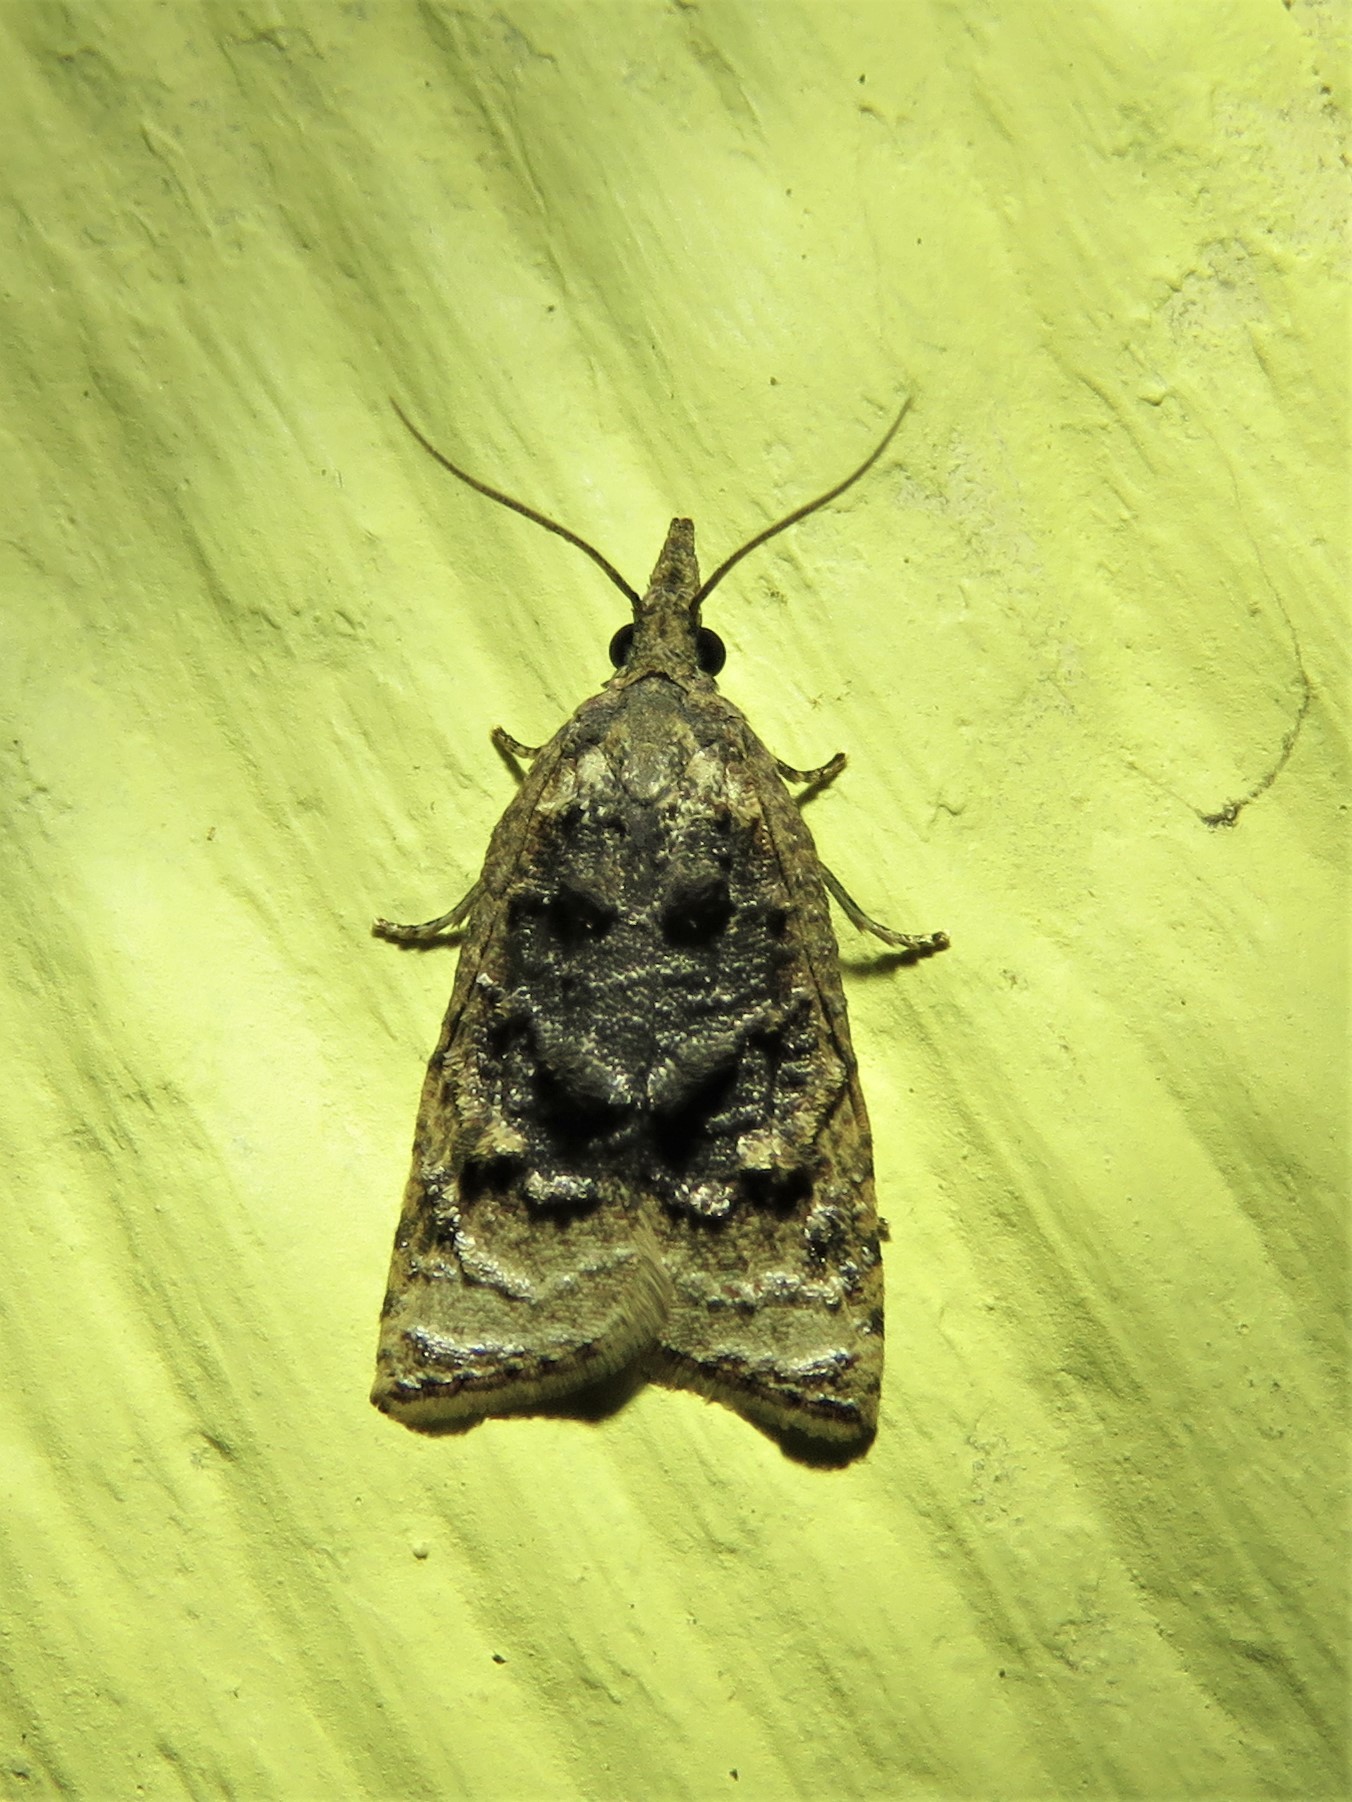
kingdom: Animalia
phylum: Arthropoda
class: Insecta
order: Lepidoptera
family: Tortricidae
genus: Platynota
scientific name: Platynota flavedana
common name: Black-shaded platynota moth
